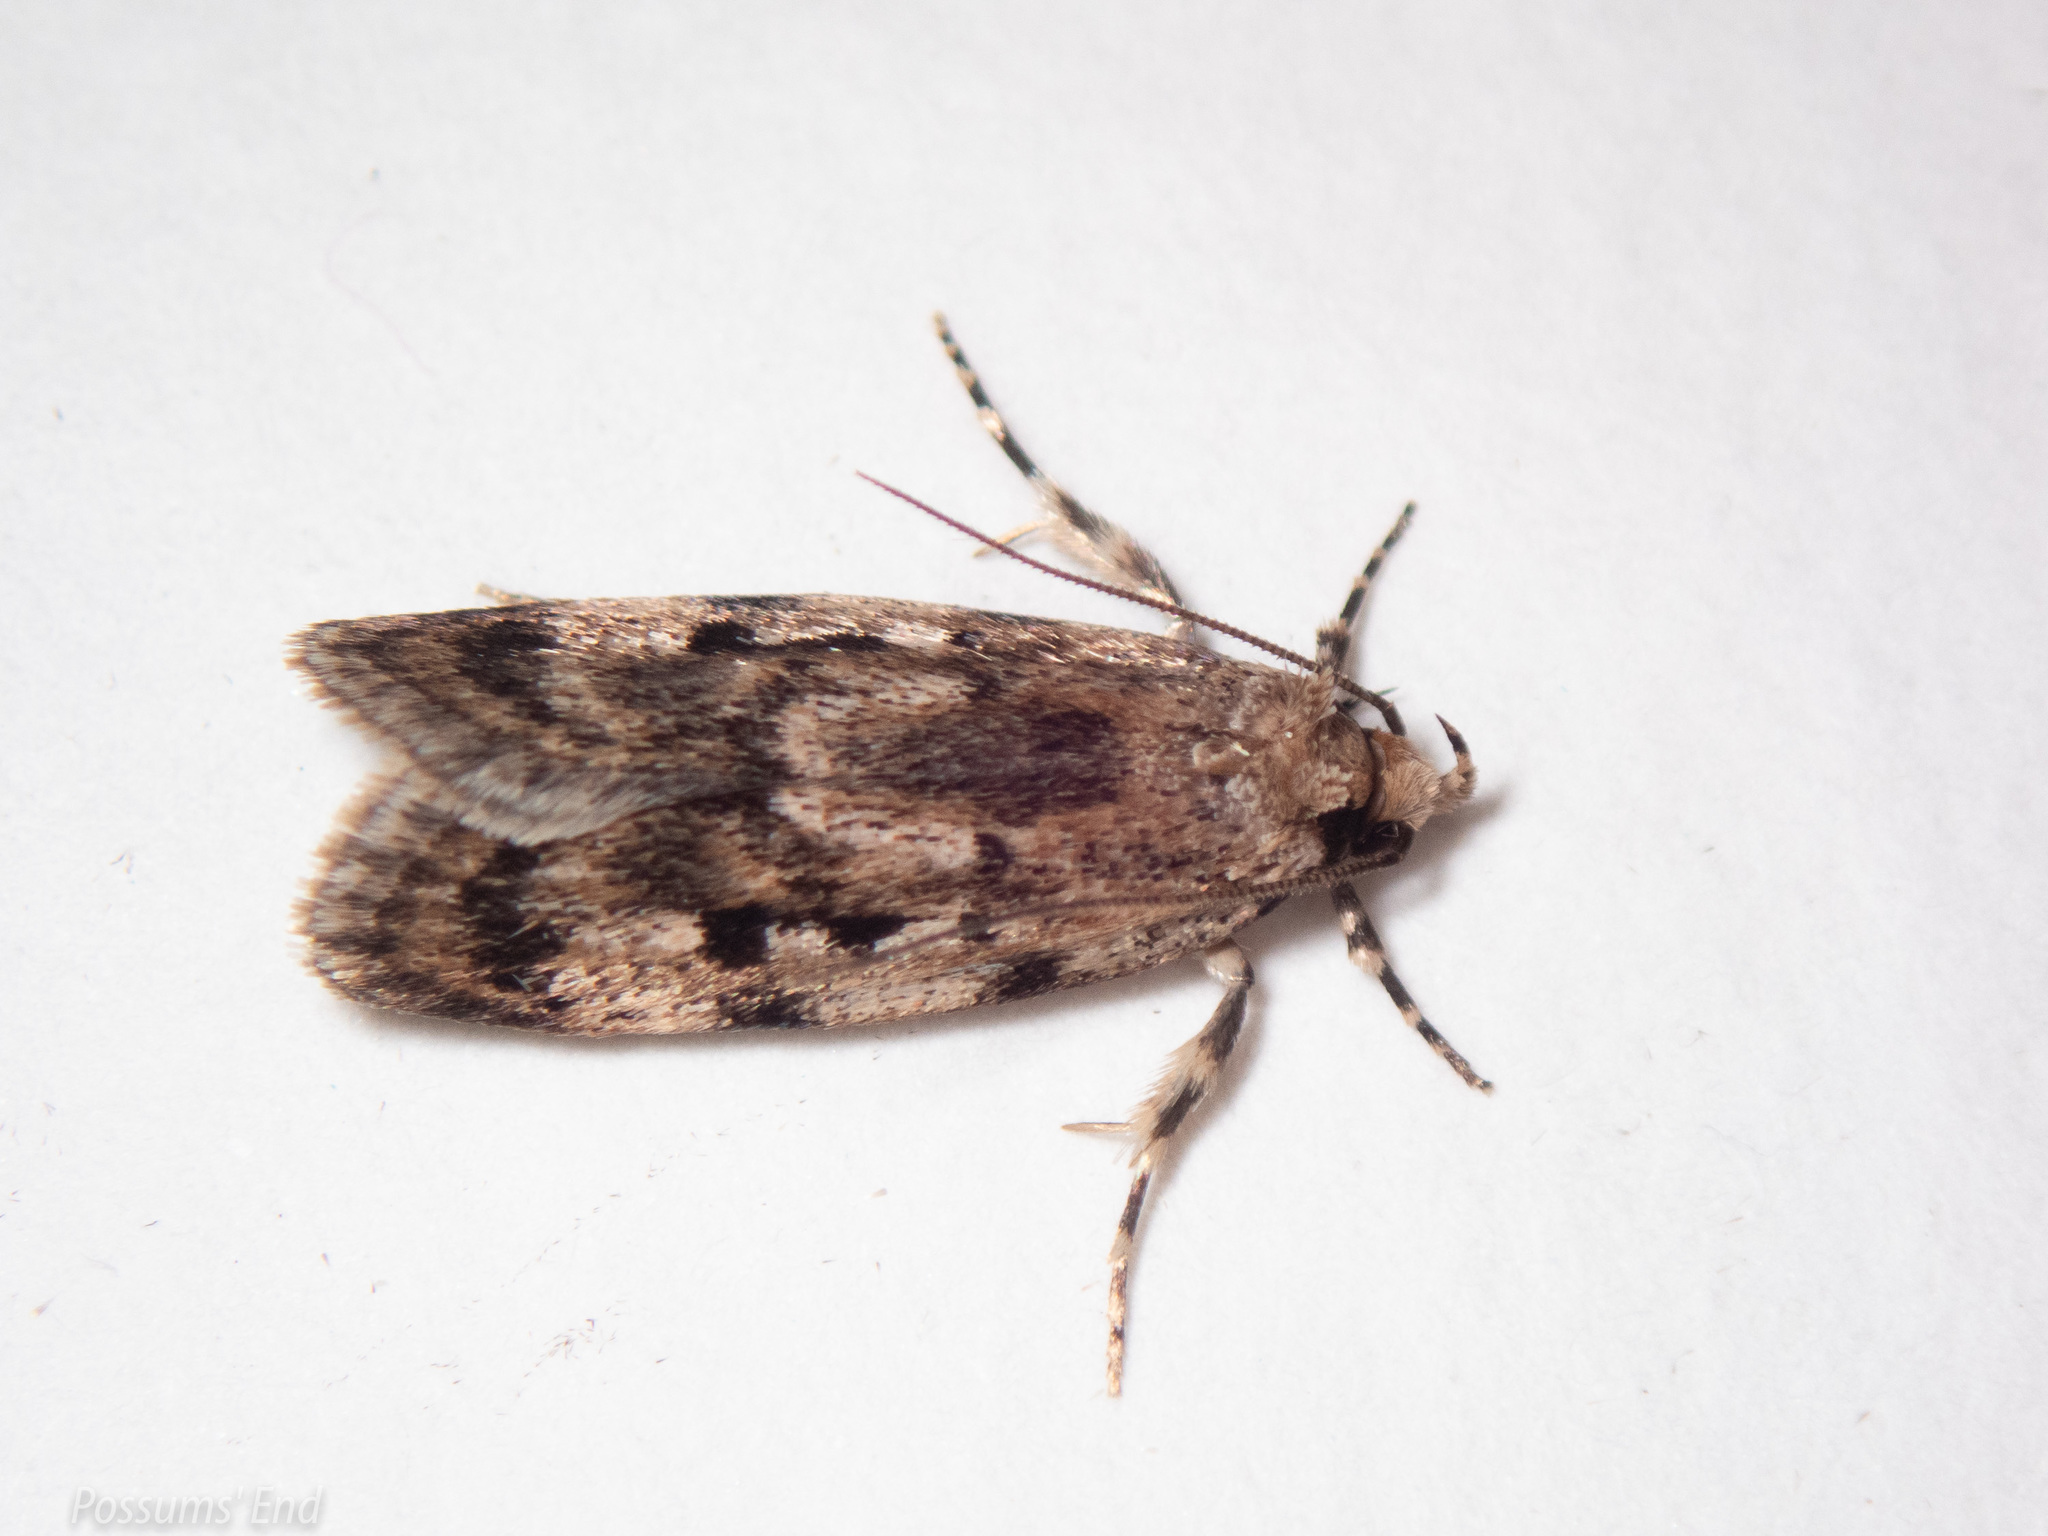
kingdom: Animalia
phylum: Arthropoda
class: Insecta
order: Lepidoptera
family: Oecophoridae
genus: Barea
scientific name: Barea exarcha
